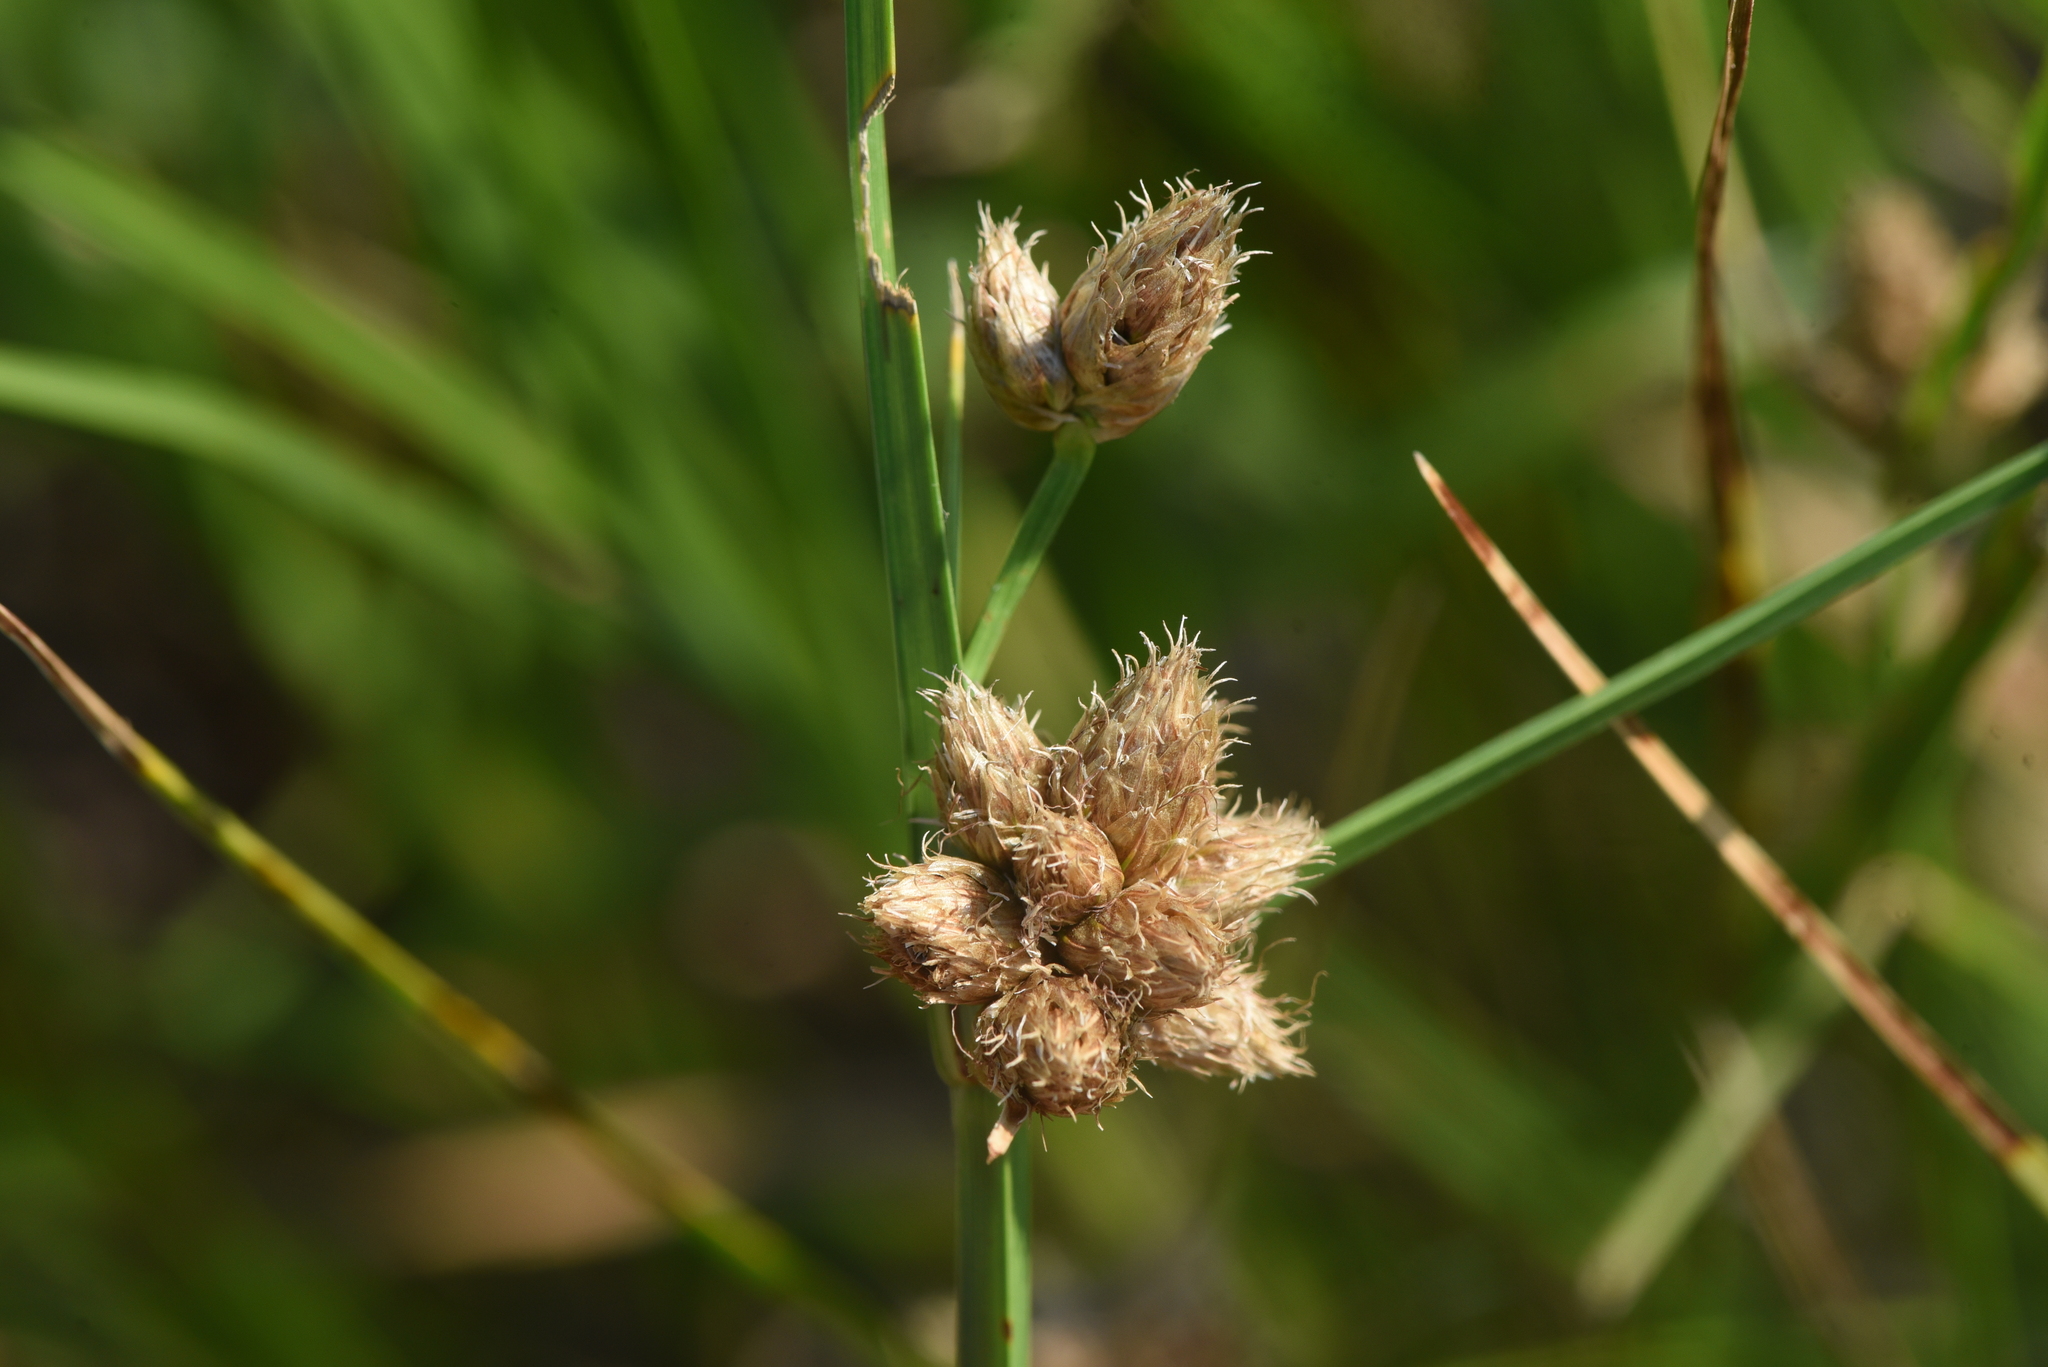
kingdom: Plantae
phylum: Tracheophyta
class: Liliopsida
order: Poales
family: Cyperaceae
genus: Bolboschoenus
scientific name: Bolboschoenus maritimus
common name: Sea club-rush
